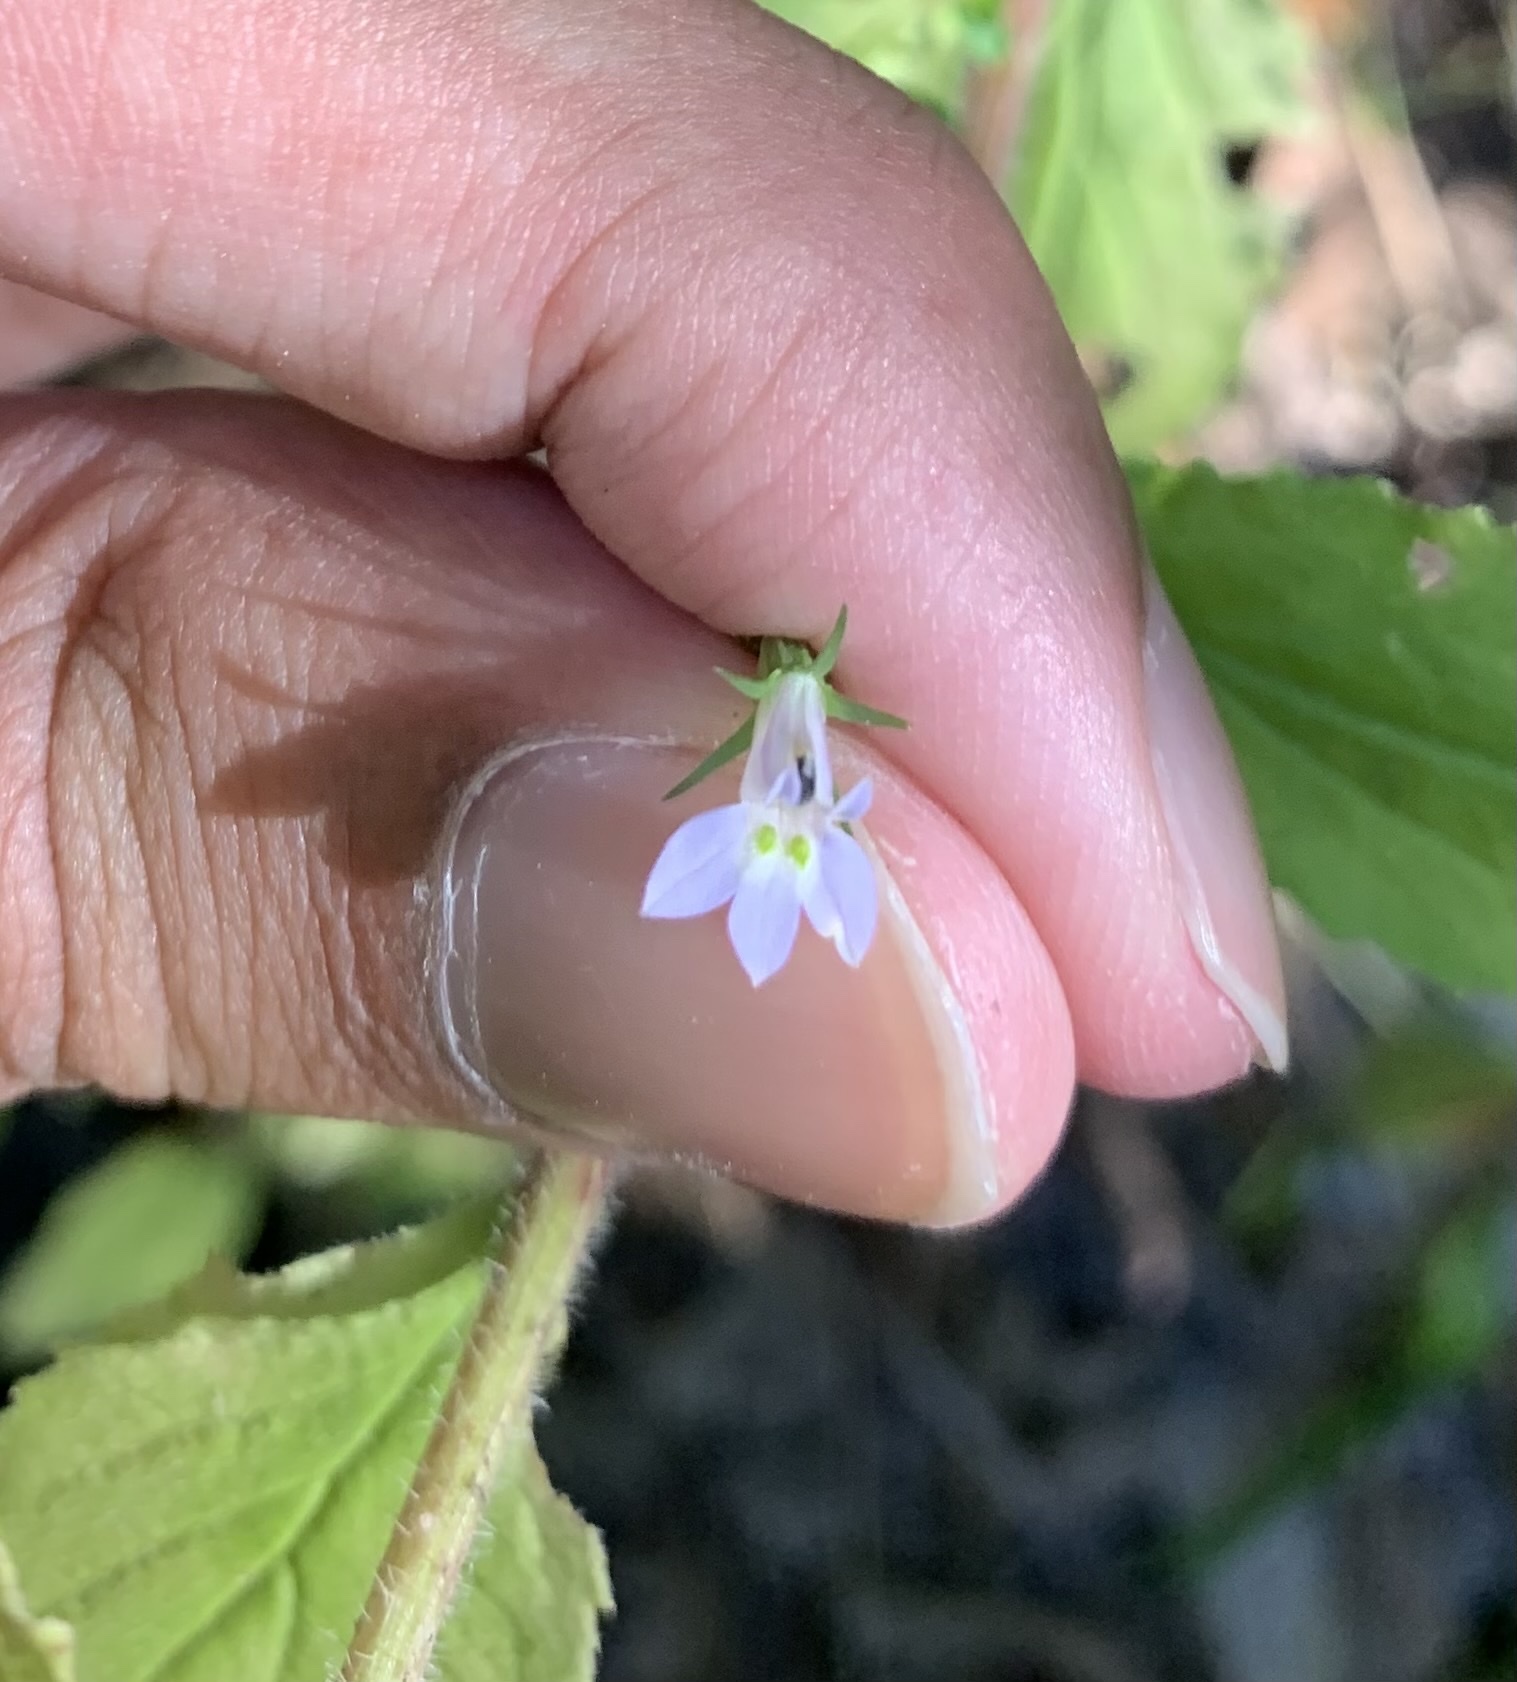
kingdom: Plantae
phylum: Tracheophyta
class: Magnoliopsida
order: Asterales
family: Campanulaceae
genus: Lobelia
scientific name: Lobelia inflata
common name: Indian tobacco
